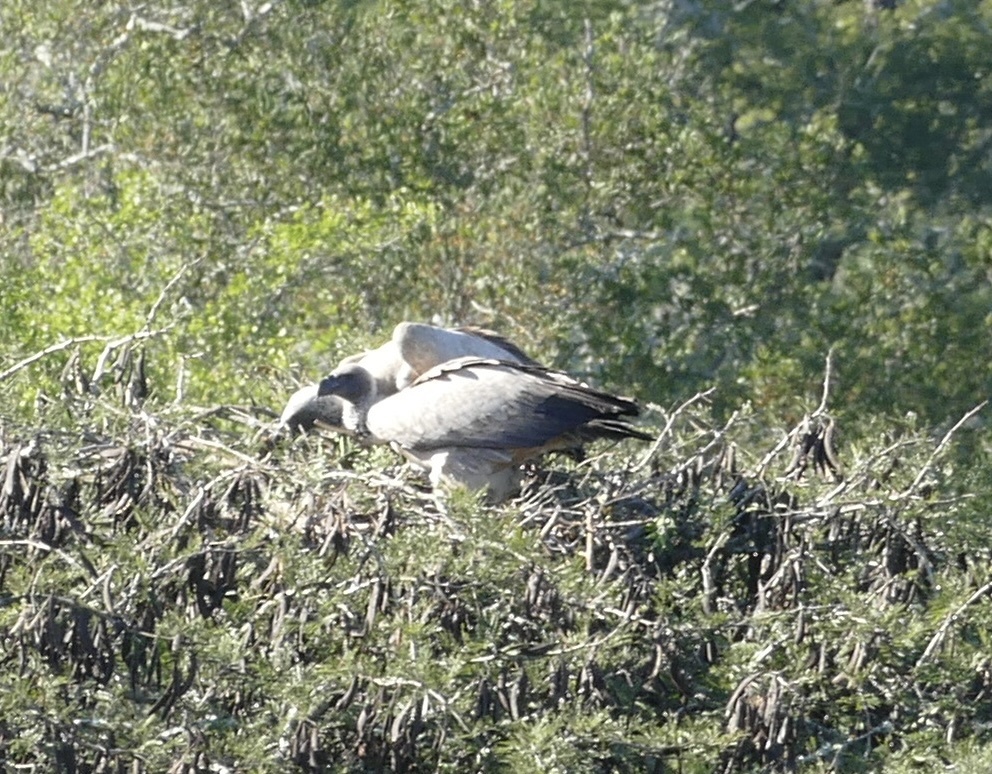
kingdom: Animalia
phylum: Chordata
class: Aves
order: Accipitriformes
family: Accipitridae
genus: Gyps
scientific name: Gyps africanus
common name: White-backed vulture
